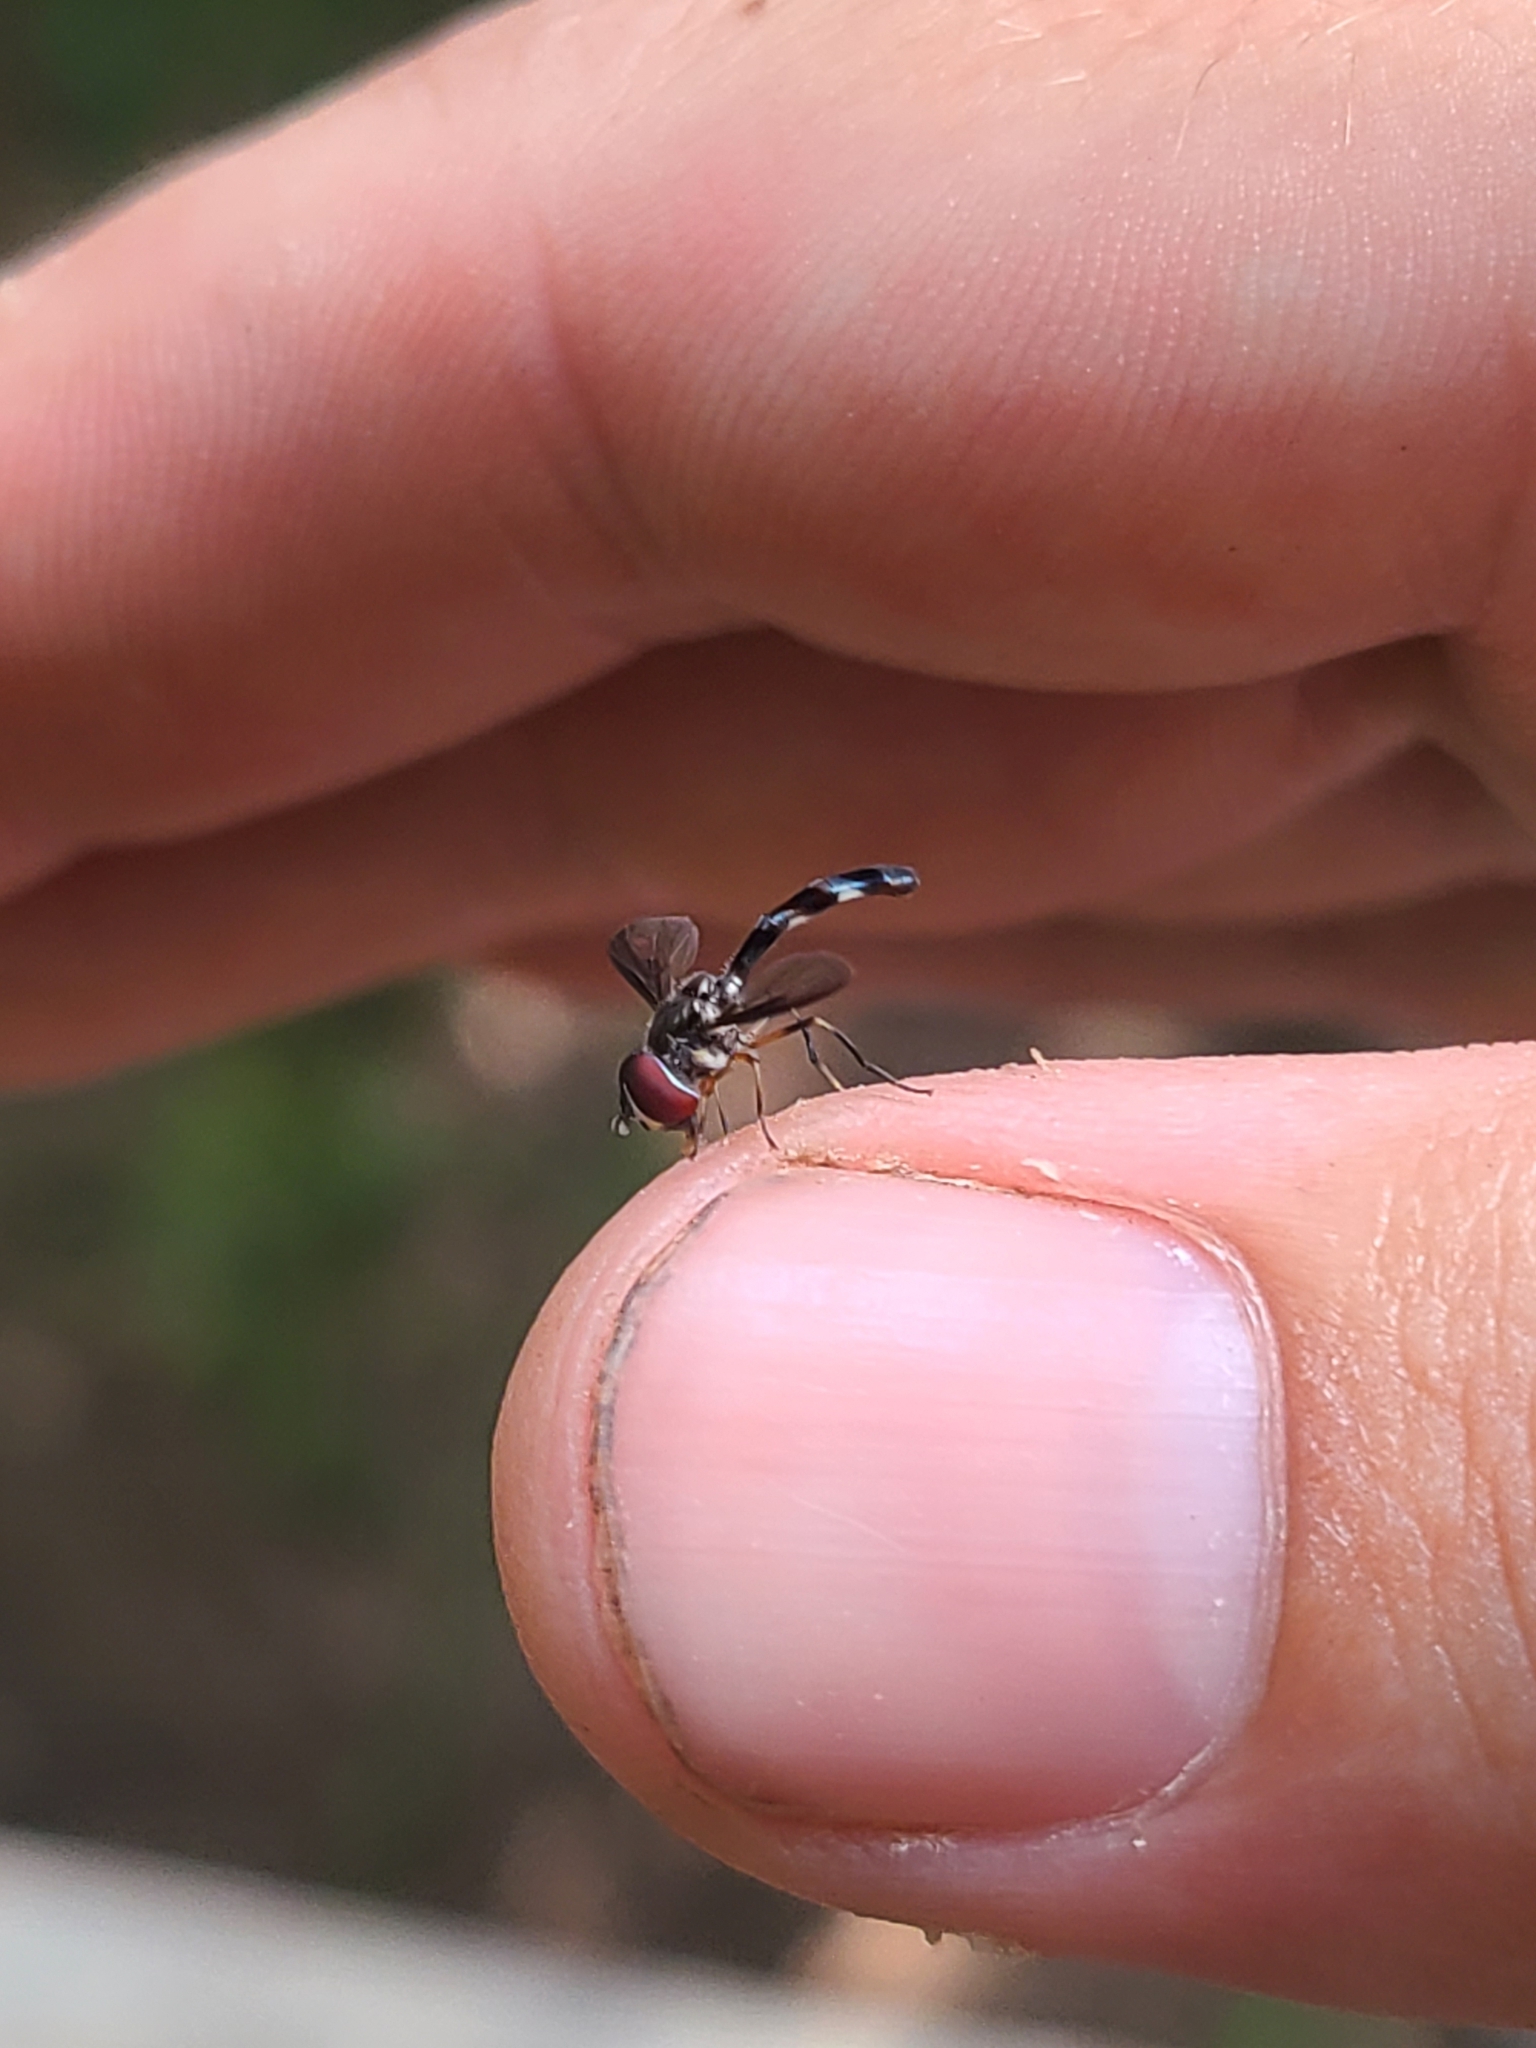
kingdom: Animalia
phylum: Arthropoda
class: Insecta
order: Diptera
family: Syrphidae
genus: Ocyptamus
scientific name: Ocyptamus costatus
